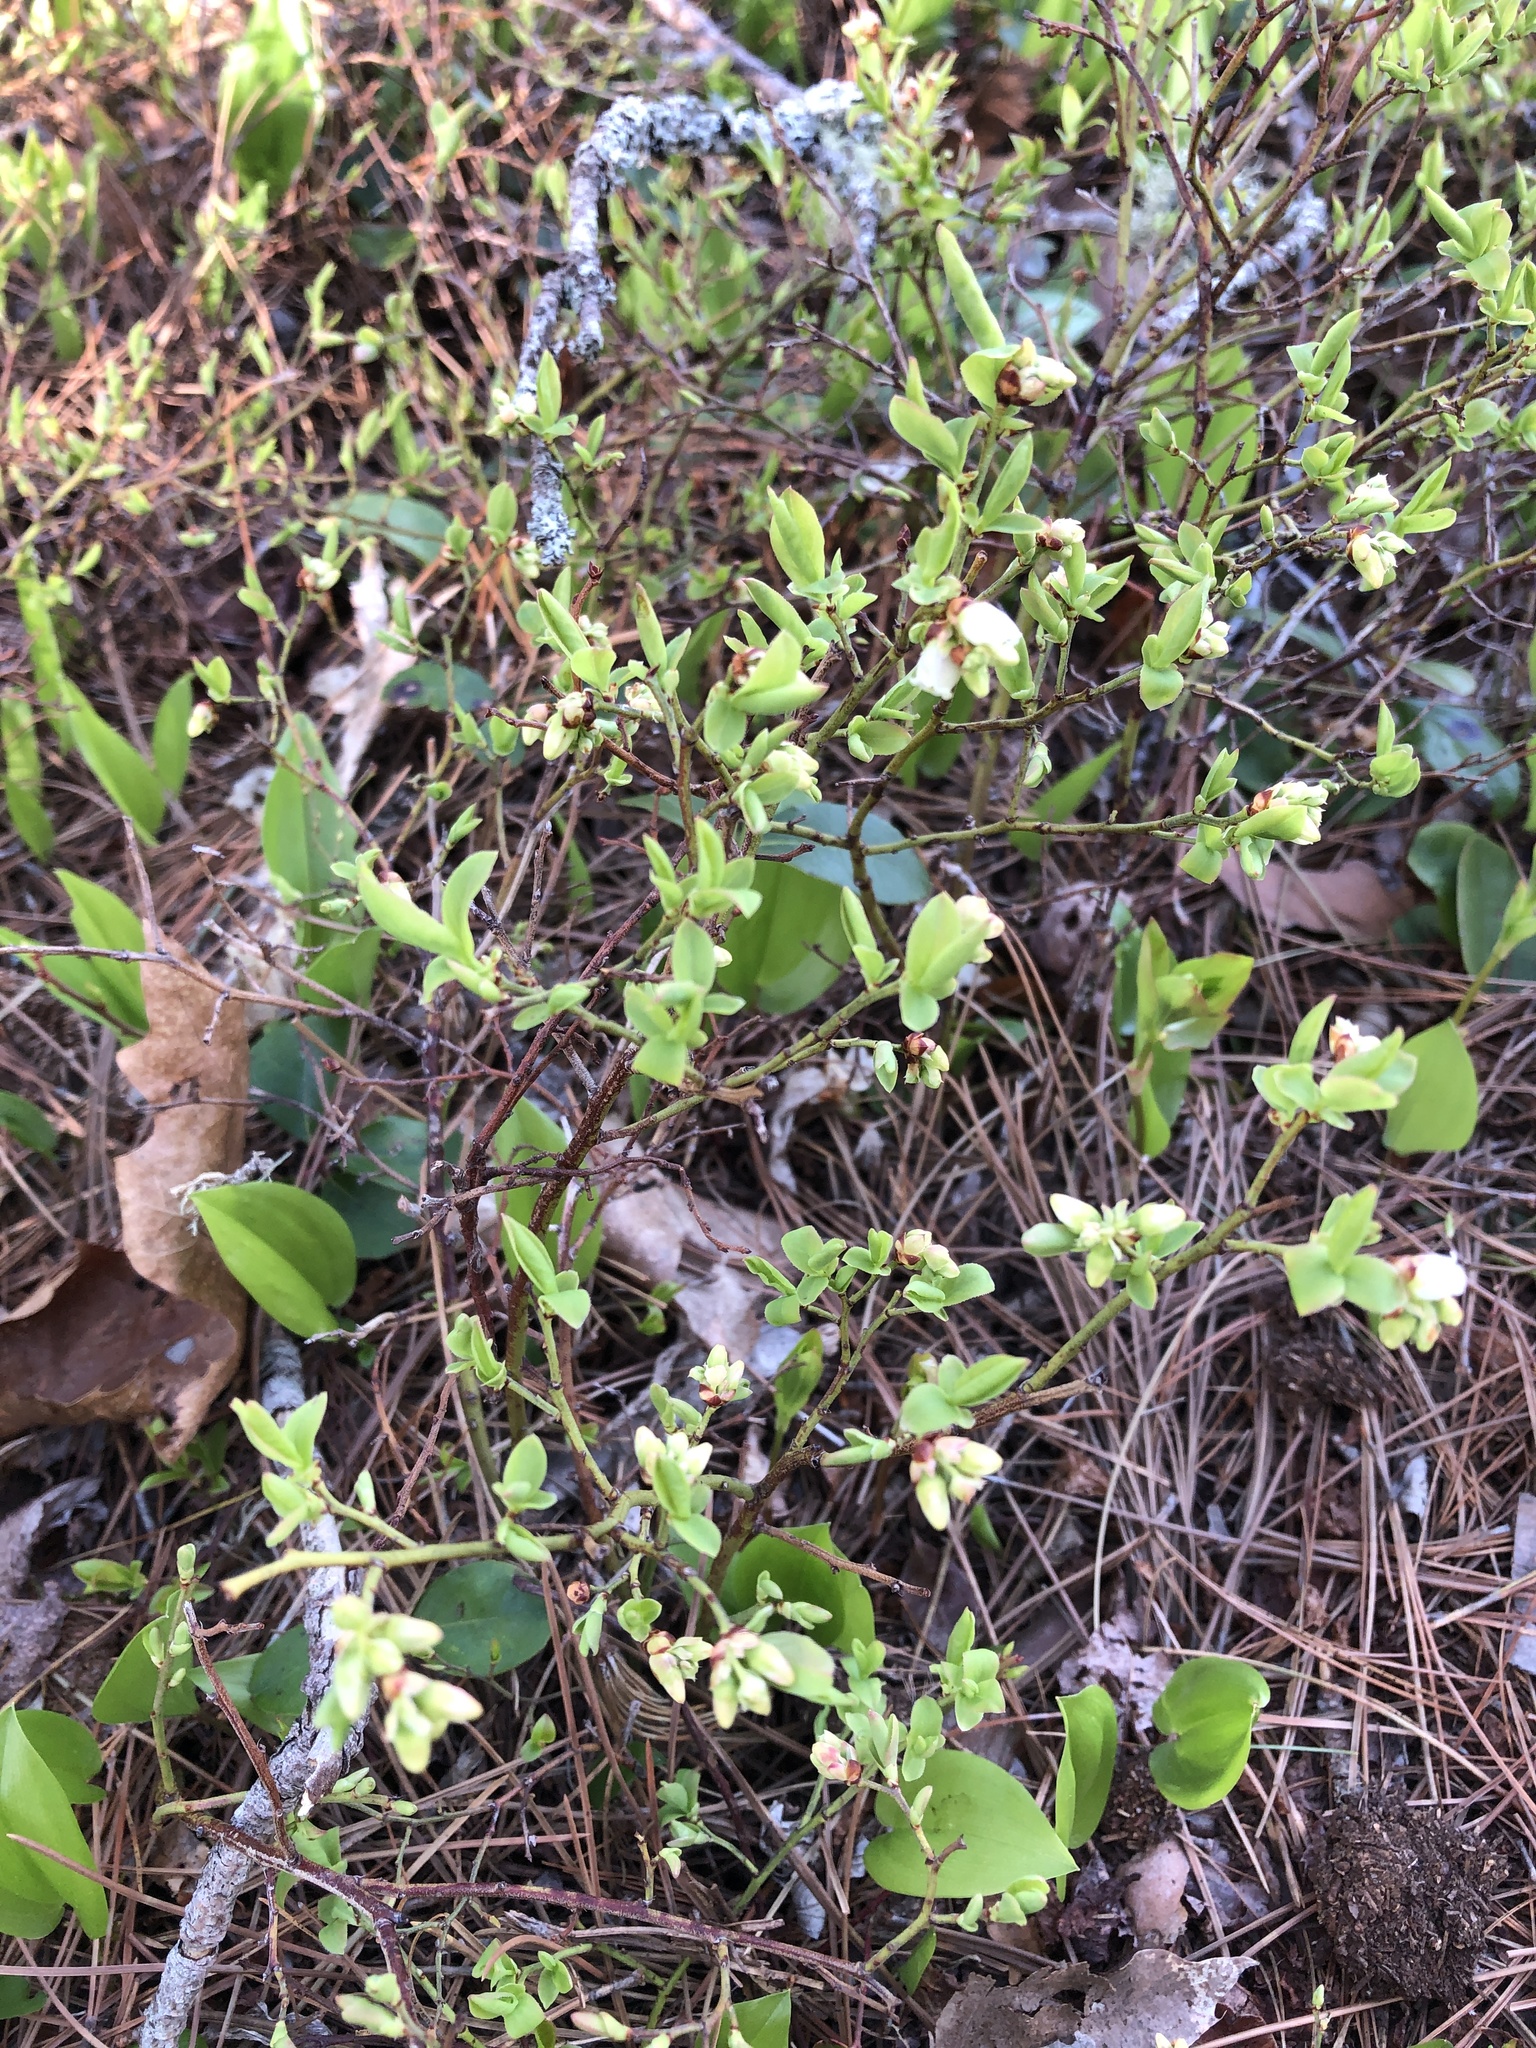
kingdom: Plantae
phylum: Tracheophyta
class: Magnoliopsida
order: Ericales
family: Ericaceae
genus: Vaccinium
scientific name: Vaccinium angustifolium
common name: Early lowbush blueberry
